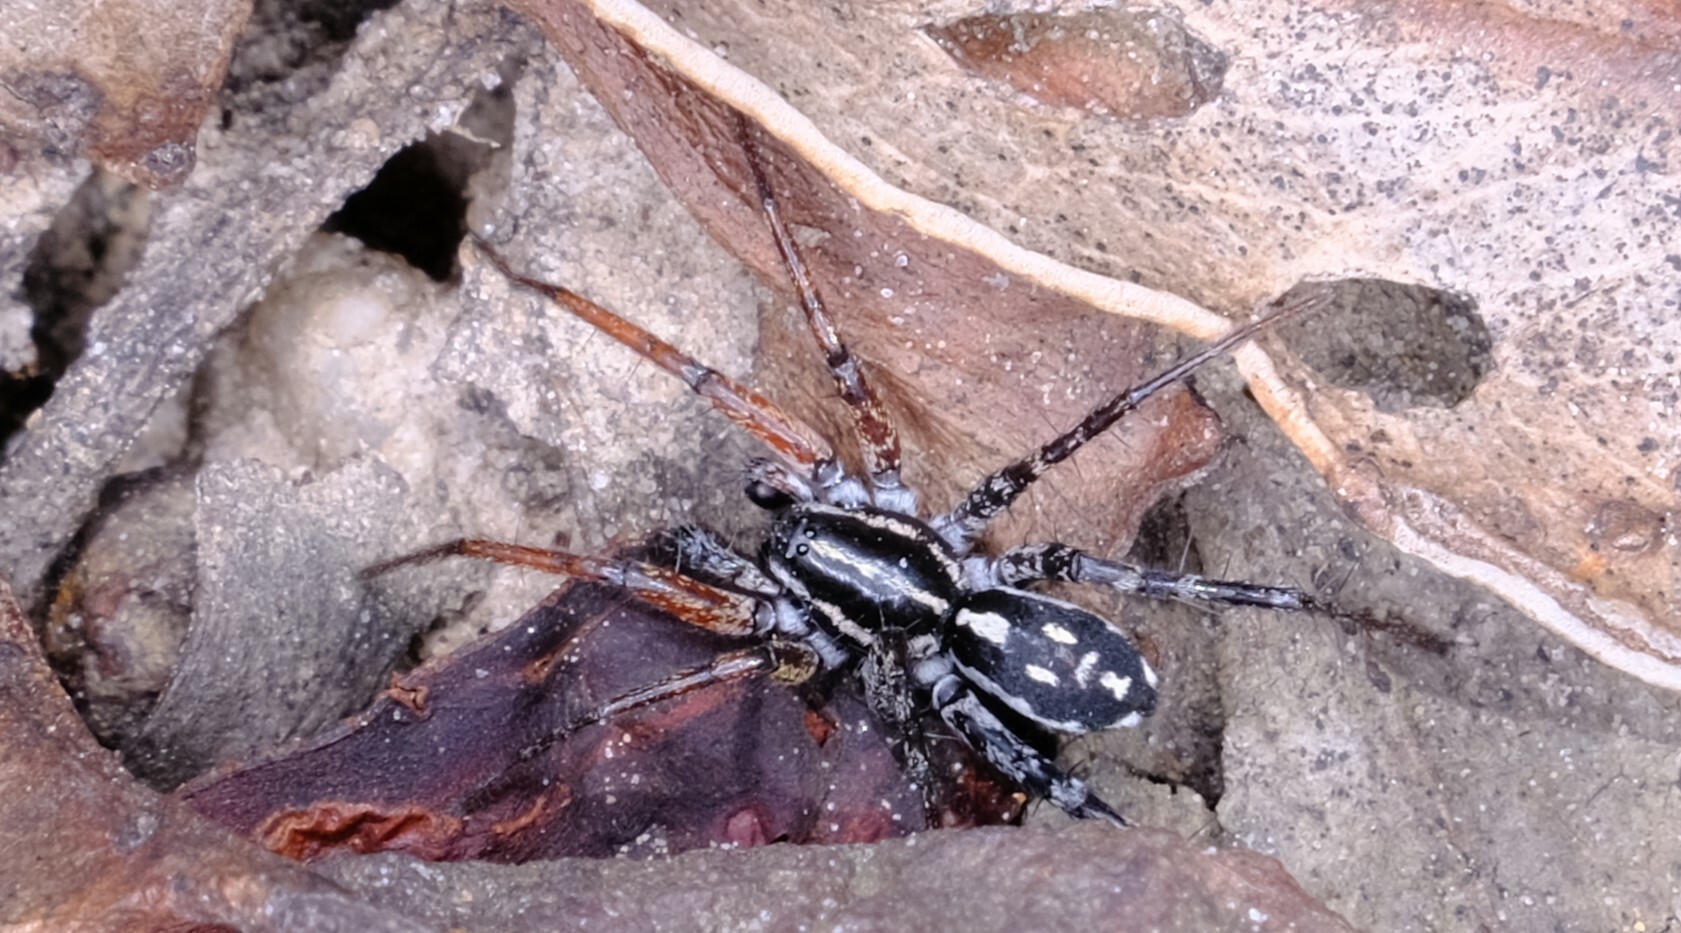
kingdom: Animalia
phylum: Arthropoda
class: Arachnida
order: Araneae
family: Corinnidae
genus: Nyssus
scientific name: Nyssus coloripes
